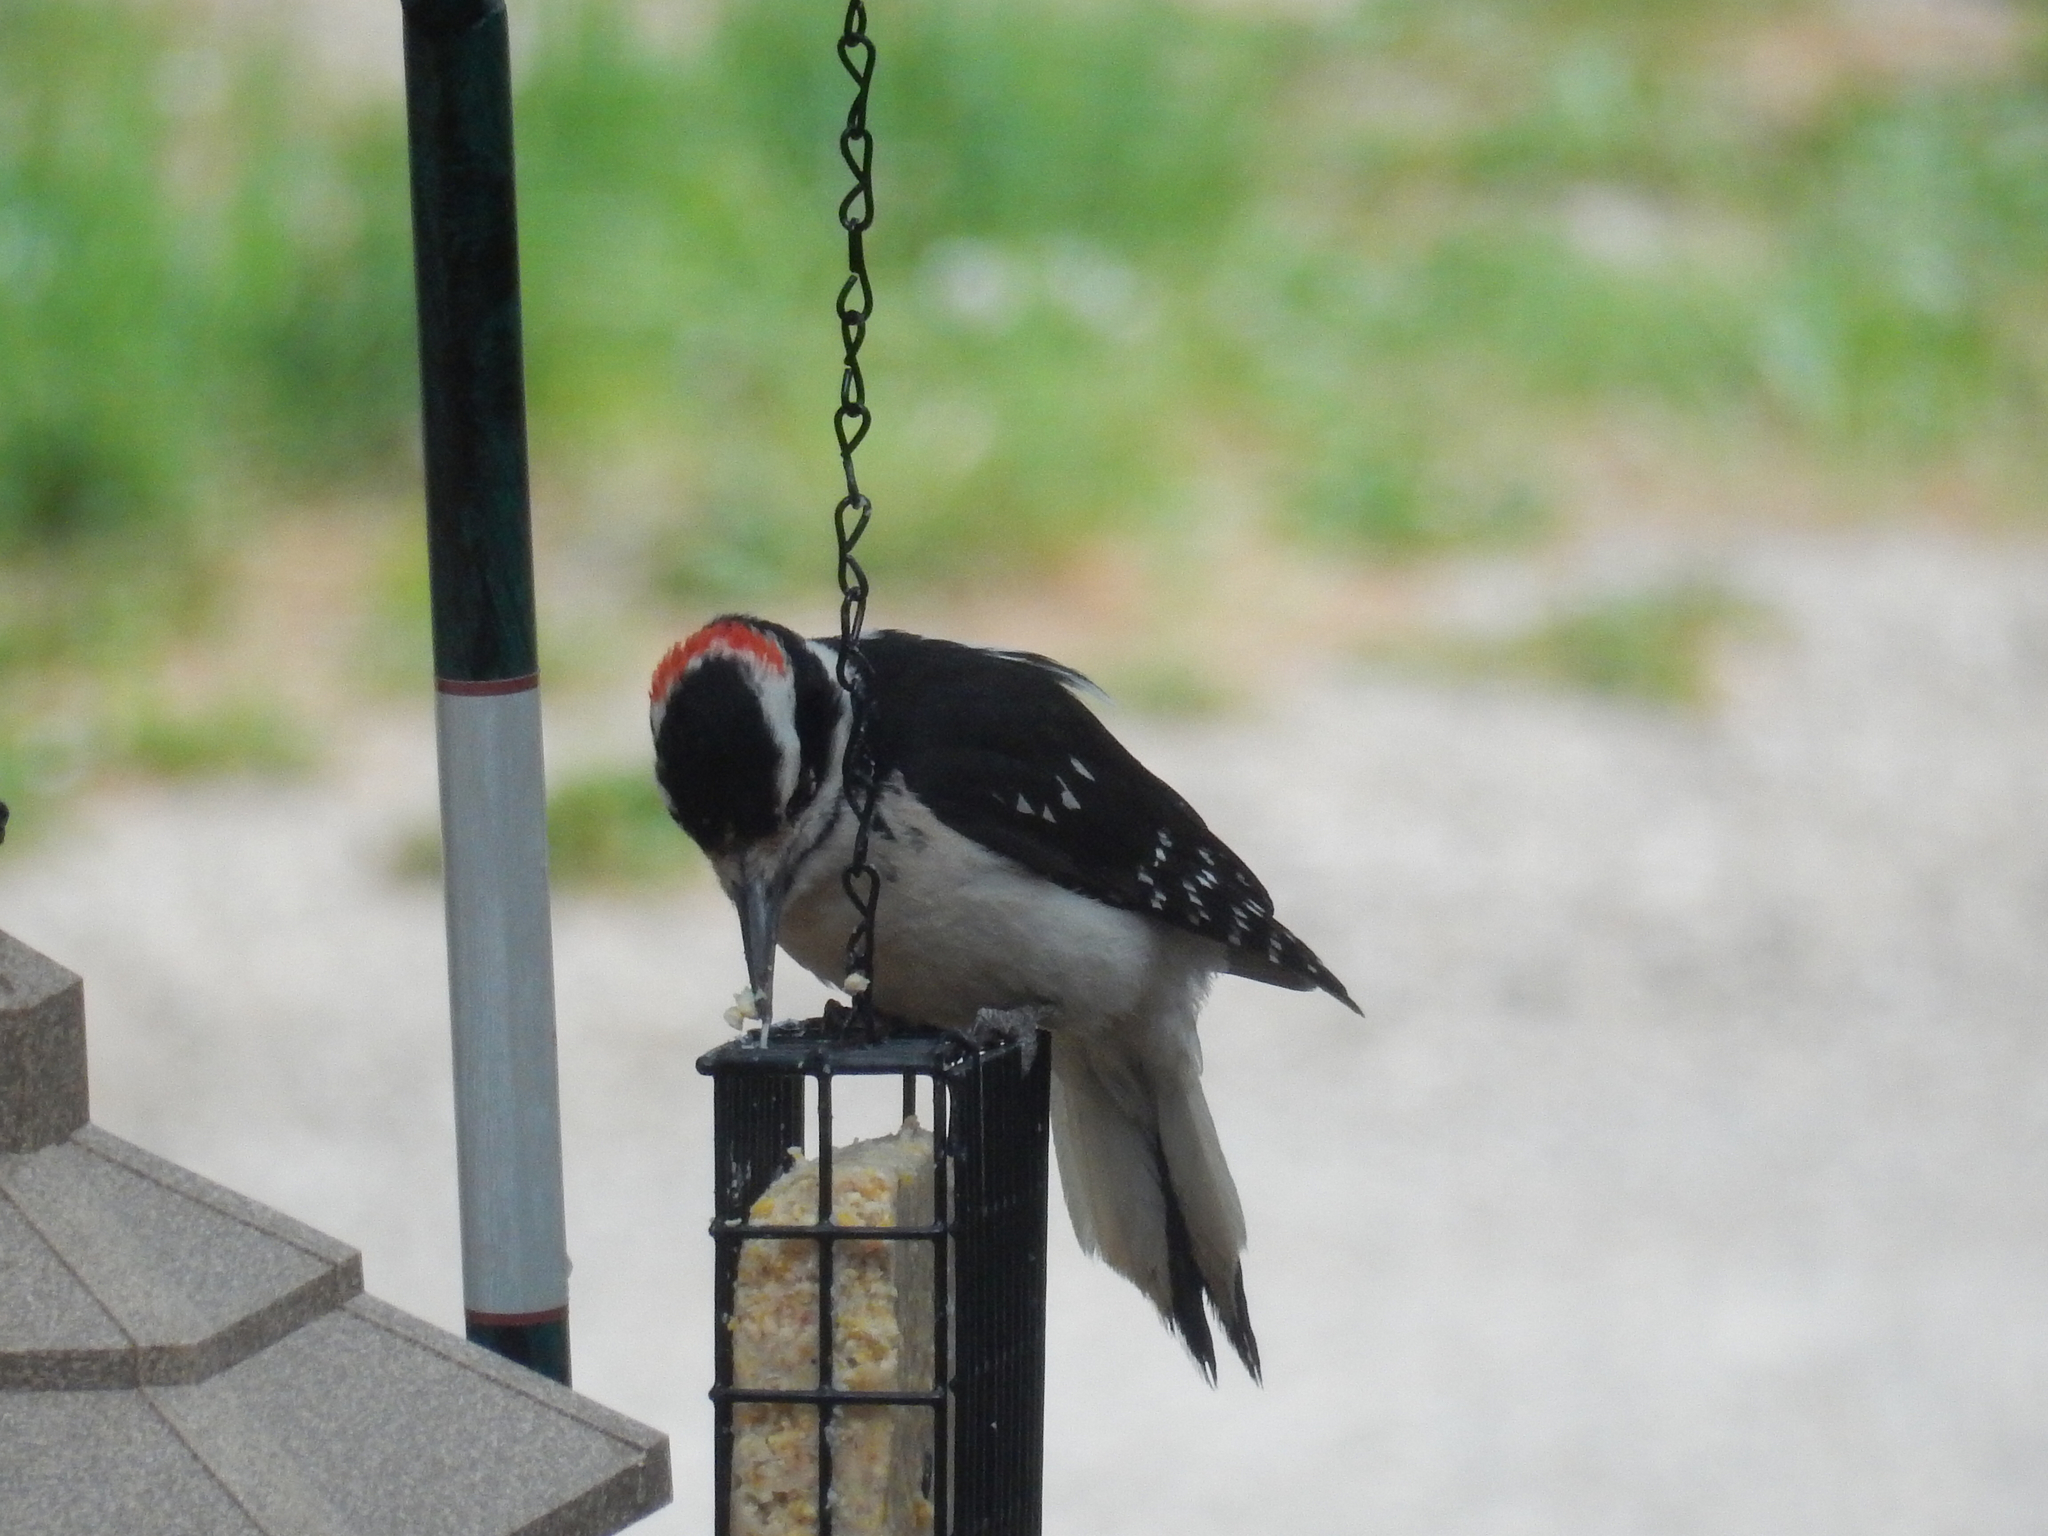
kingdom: Animalia
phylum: Chordata
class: Aves
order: Piciformes
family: Picidae
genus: Leuconotopicus
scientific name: Leuconotopicus villosus
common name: Hairy woodpecker
